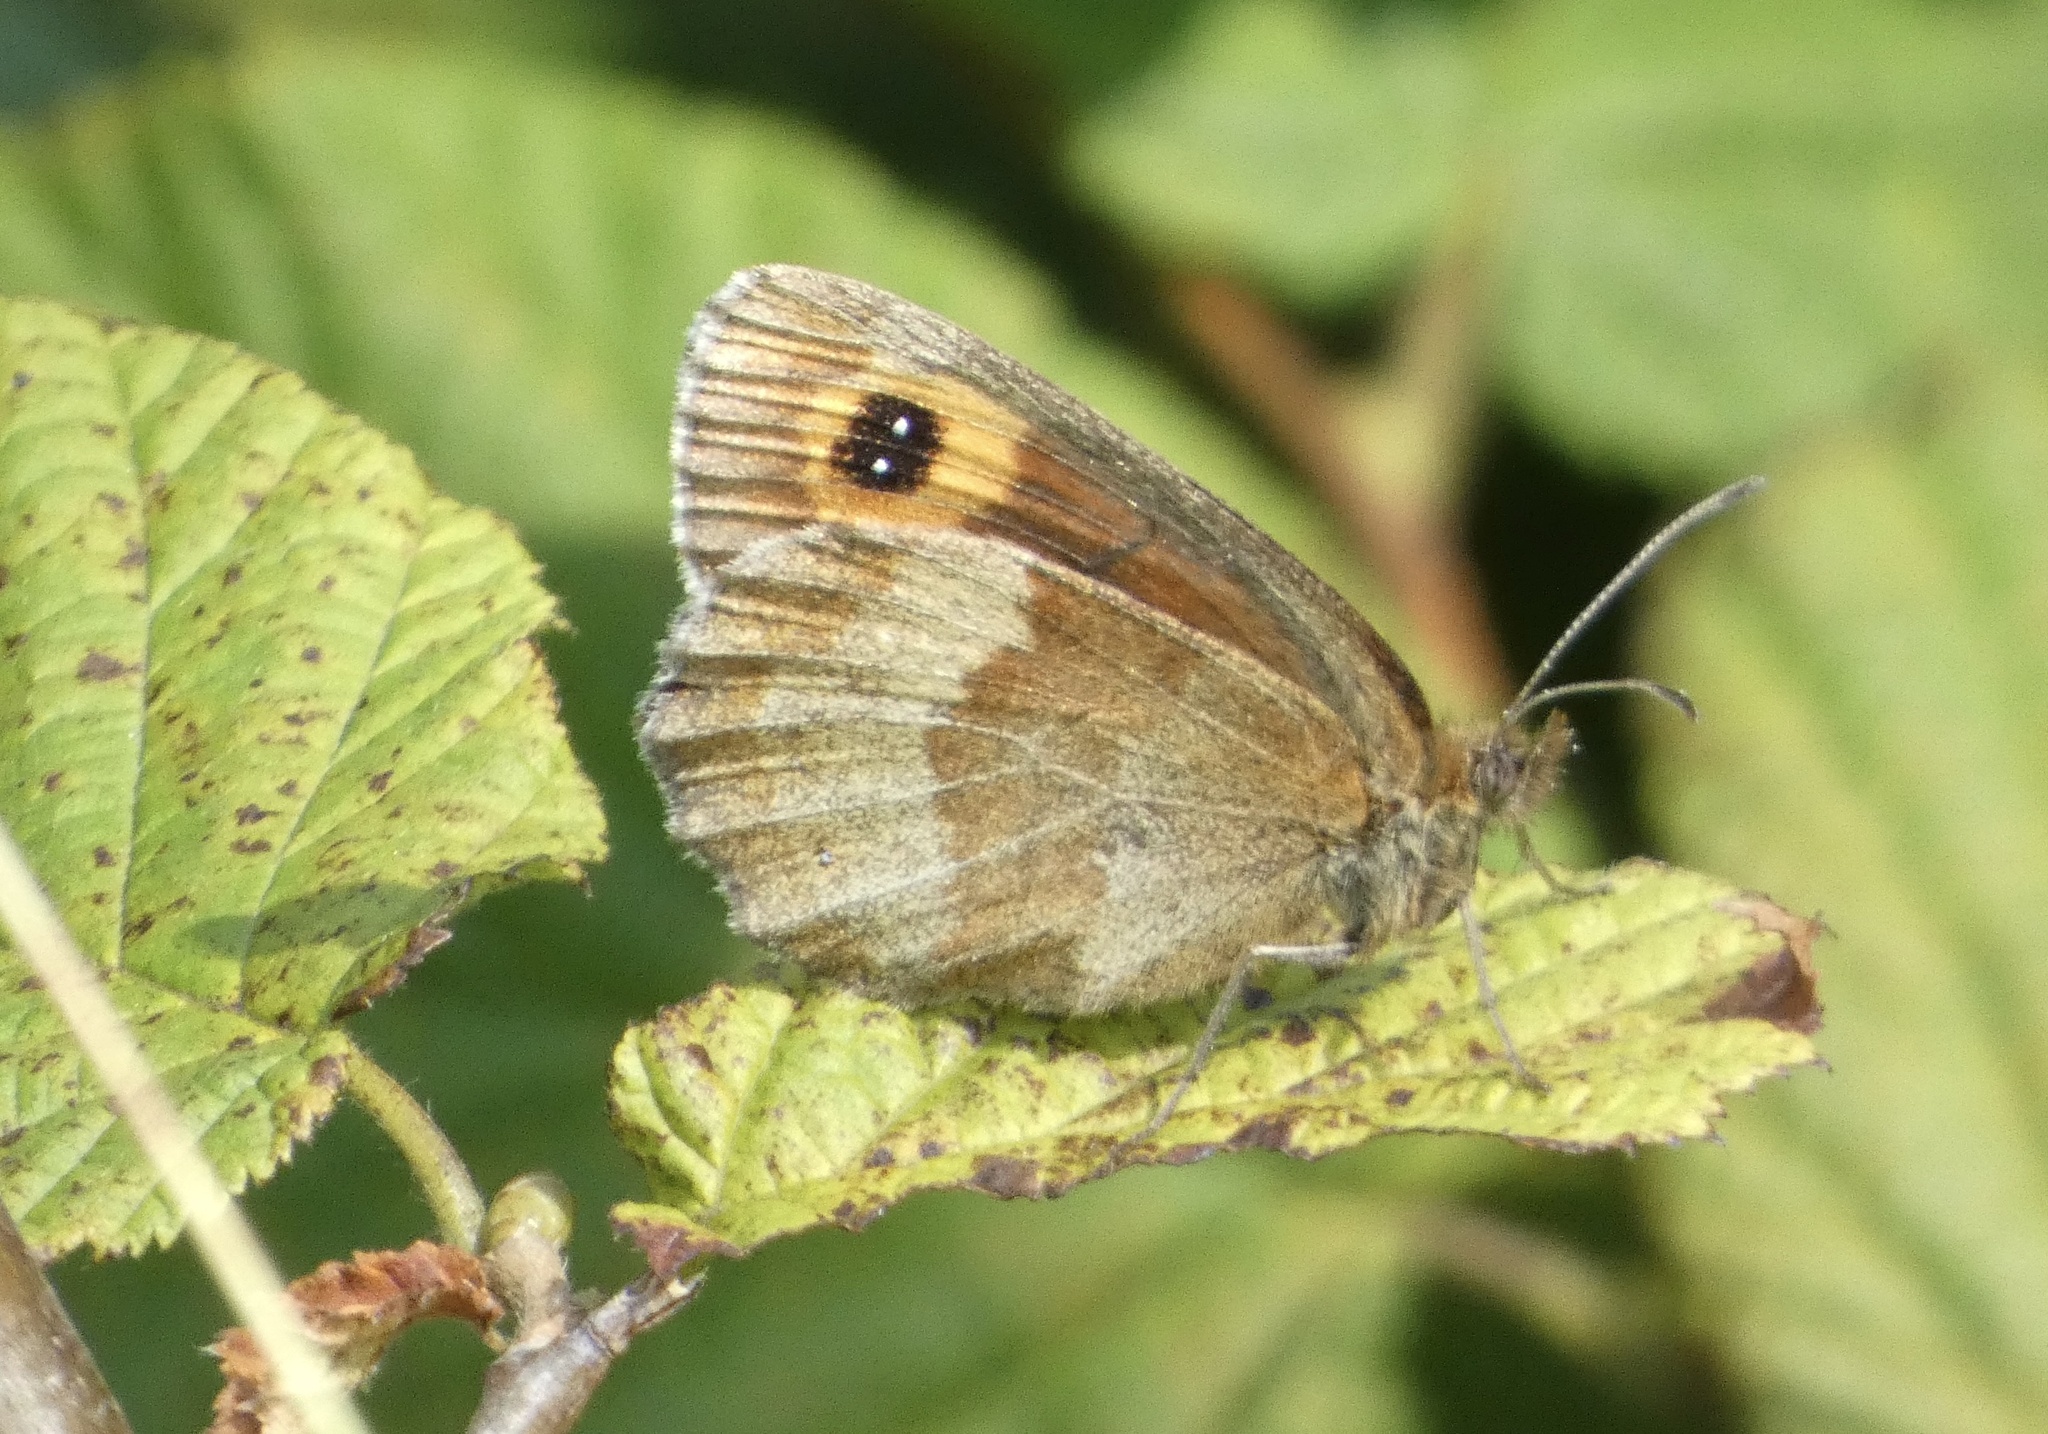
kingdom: Animalia
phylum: Arthropoda
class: Insecta
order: Lepidoptera
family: Nymphalidae
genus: Erebia
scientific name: Erebia aethiops
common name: Scotch argus
